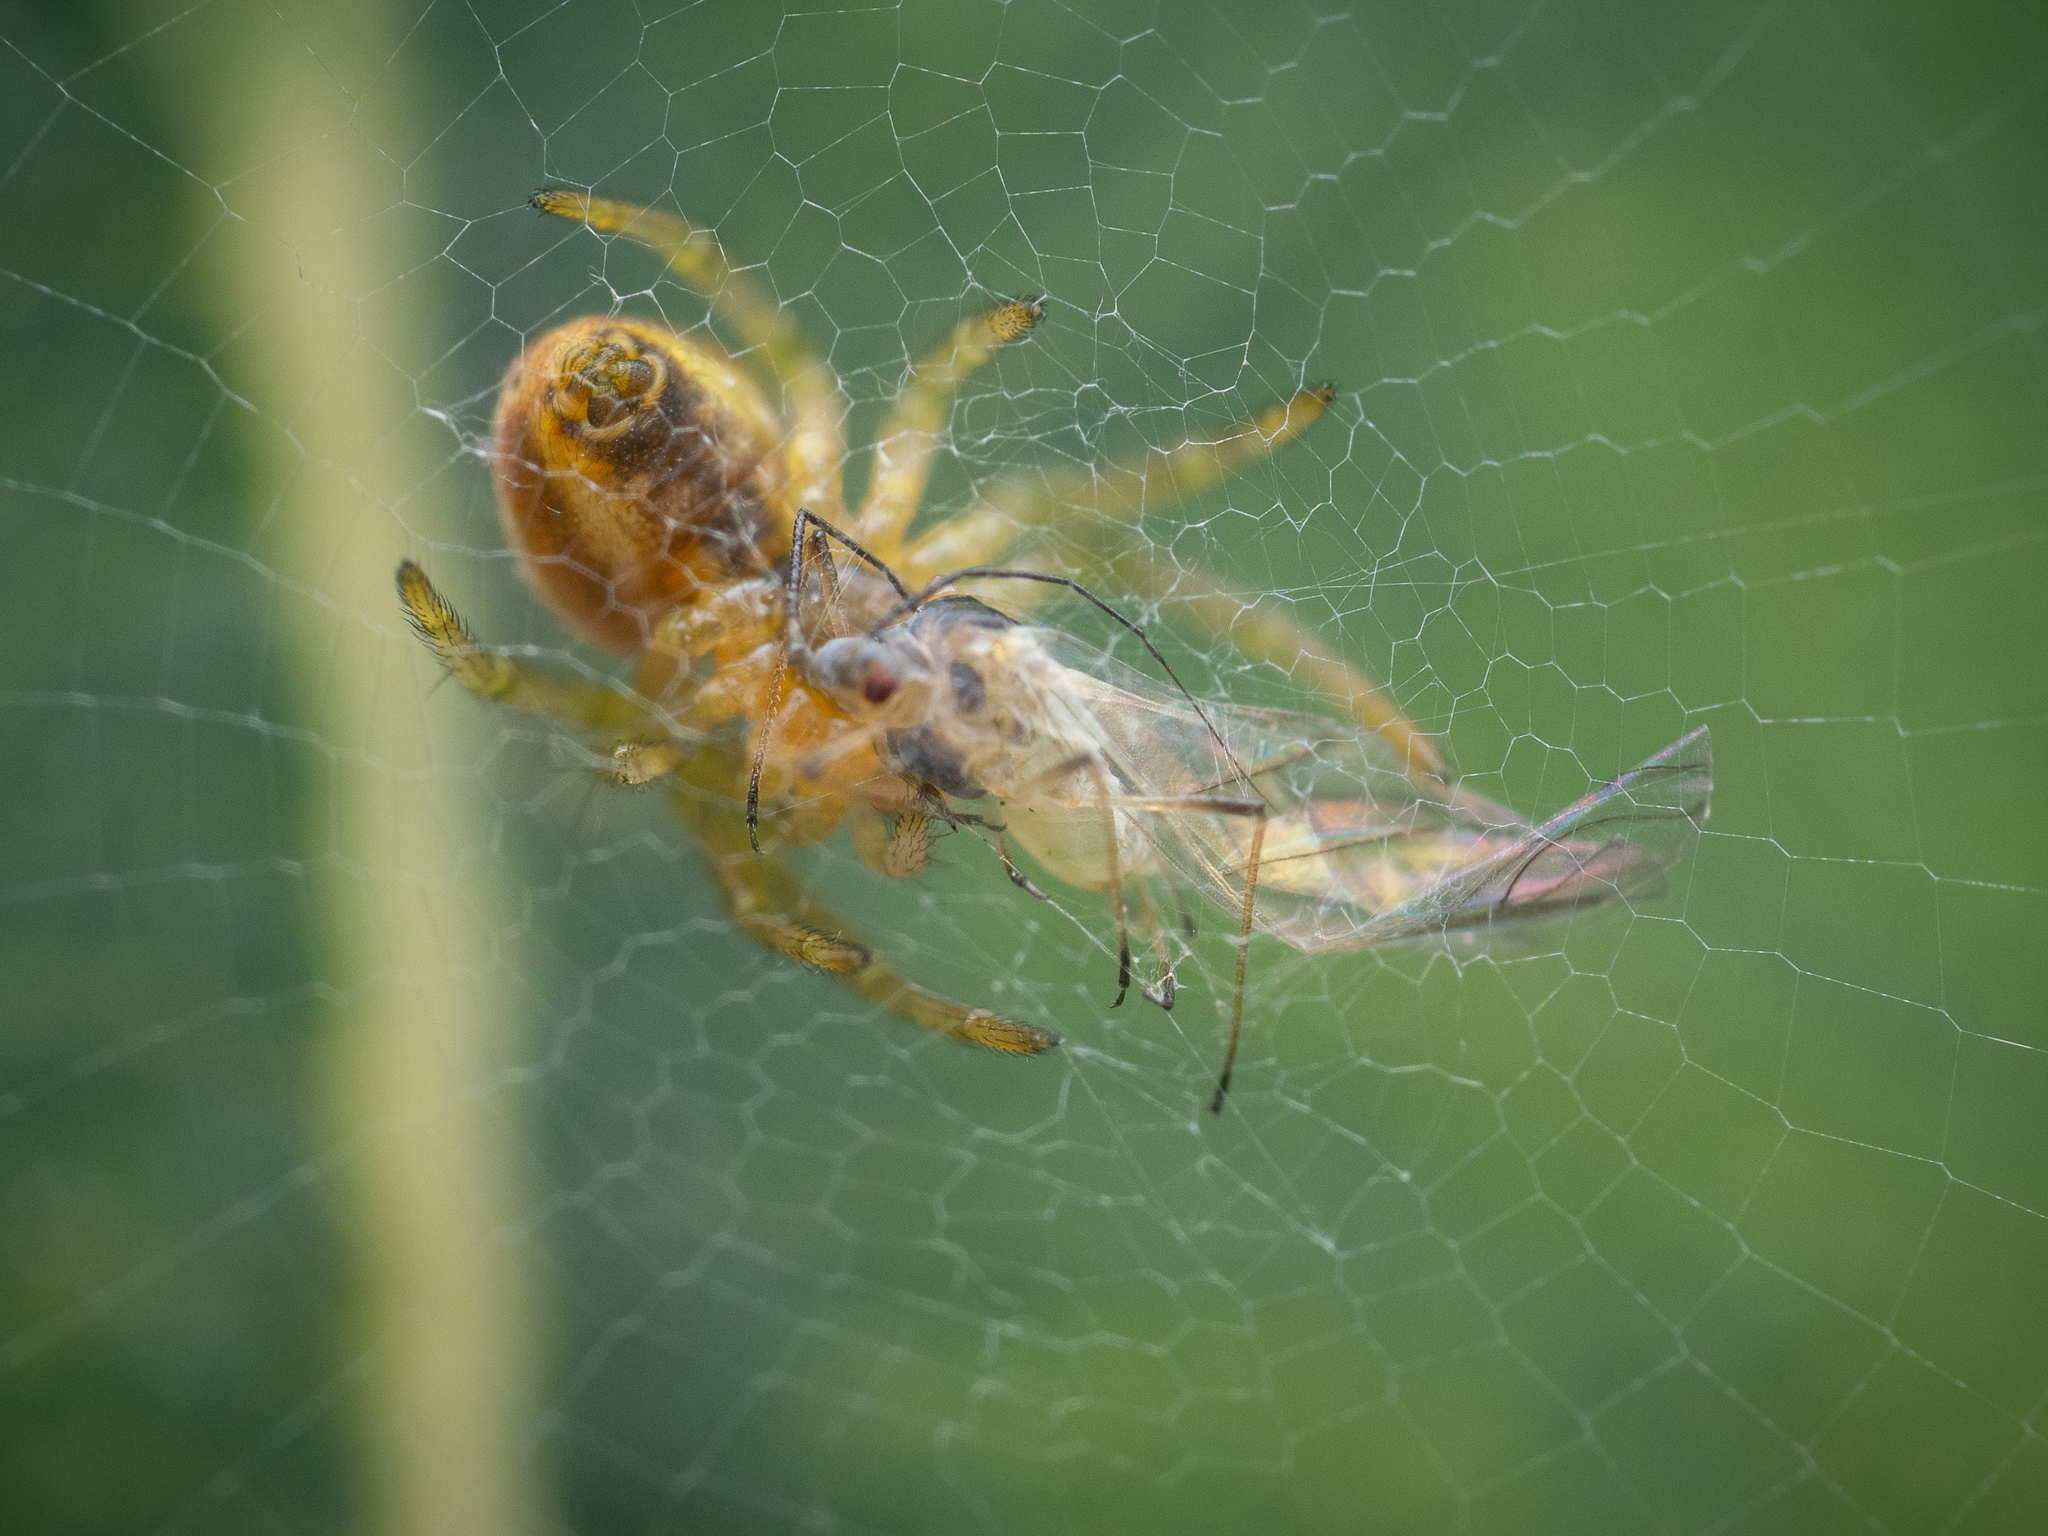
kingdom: Animalia
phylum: Arthropoda
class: Arachnida
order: Araneae
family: Araneidae
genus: Araniella
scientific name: Araniella
